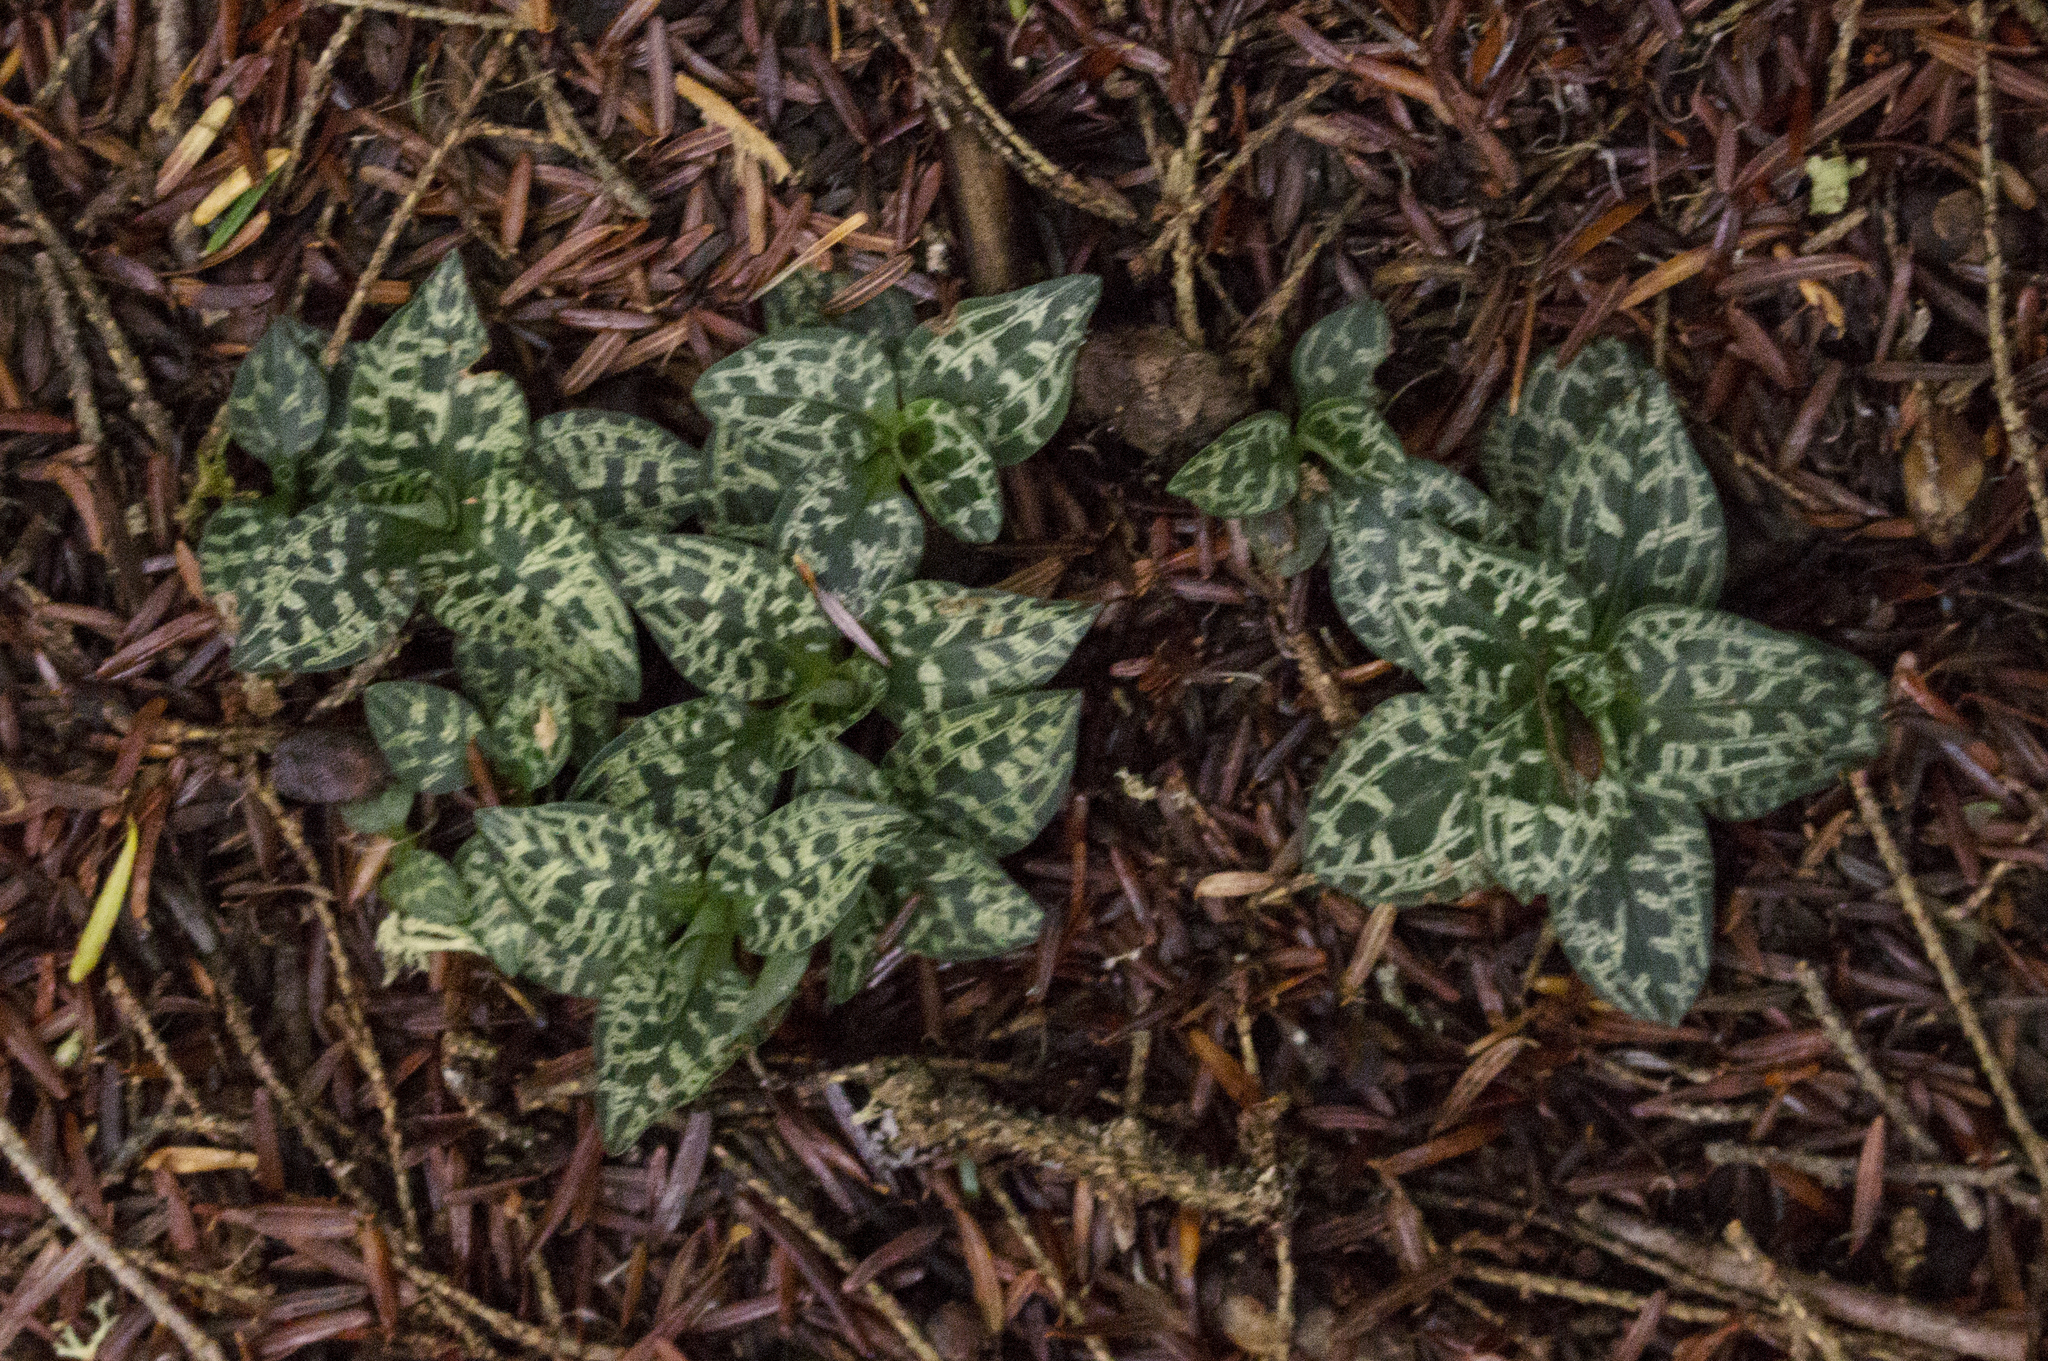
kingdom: Plantae
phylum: Tracheophyta
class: Liliopsida
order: Asparagales
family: Orchidaceae
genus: Goodyera
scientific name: Goodyera repens
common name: Creeping lady's-tresses
